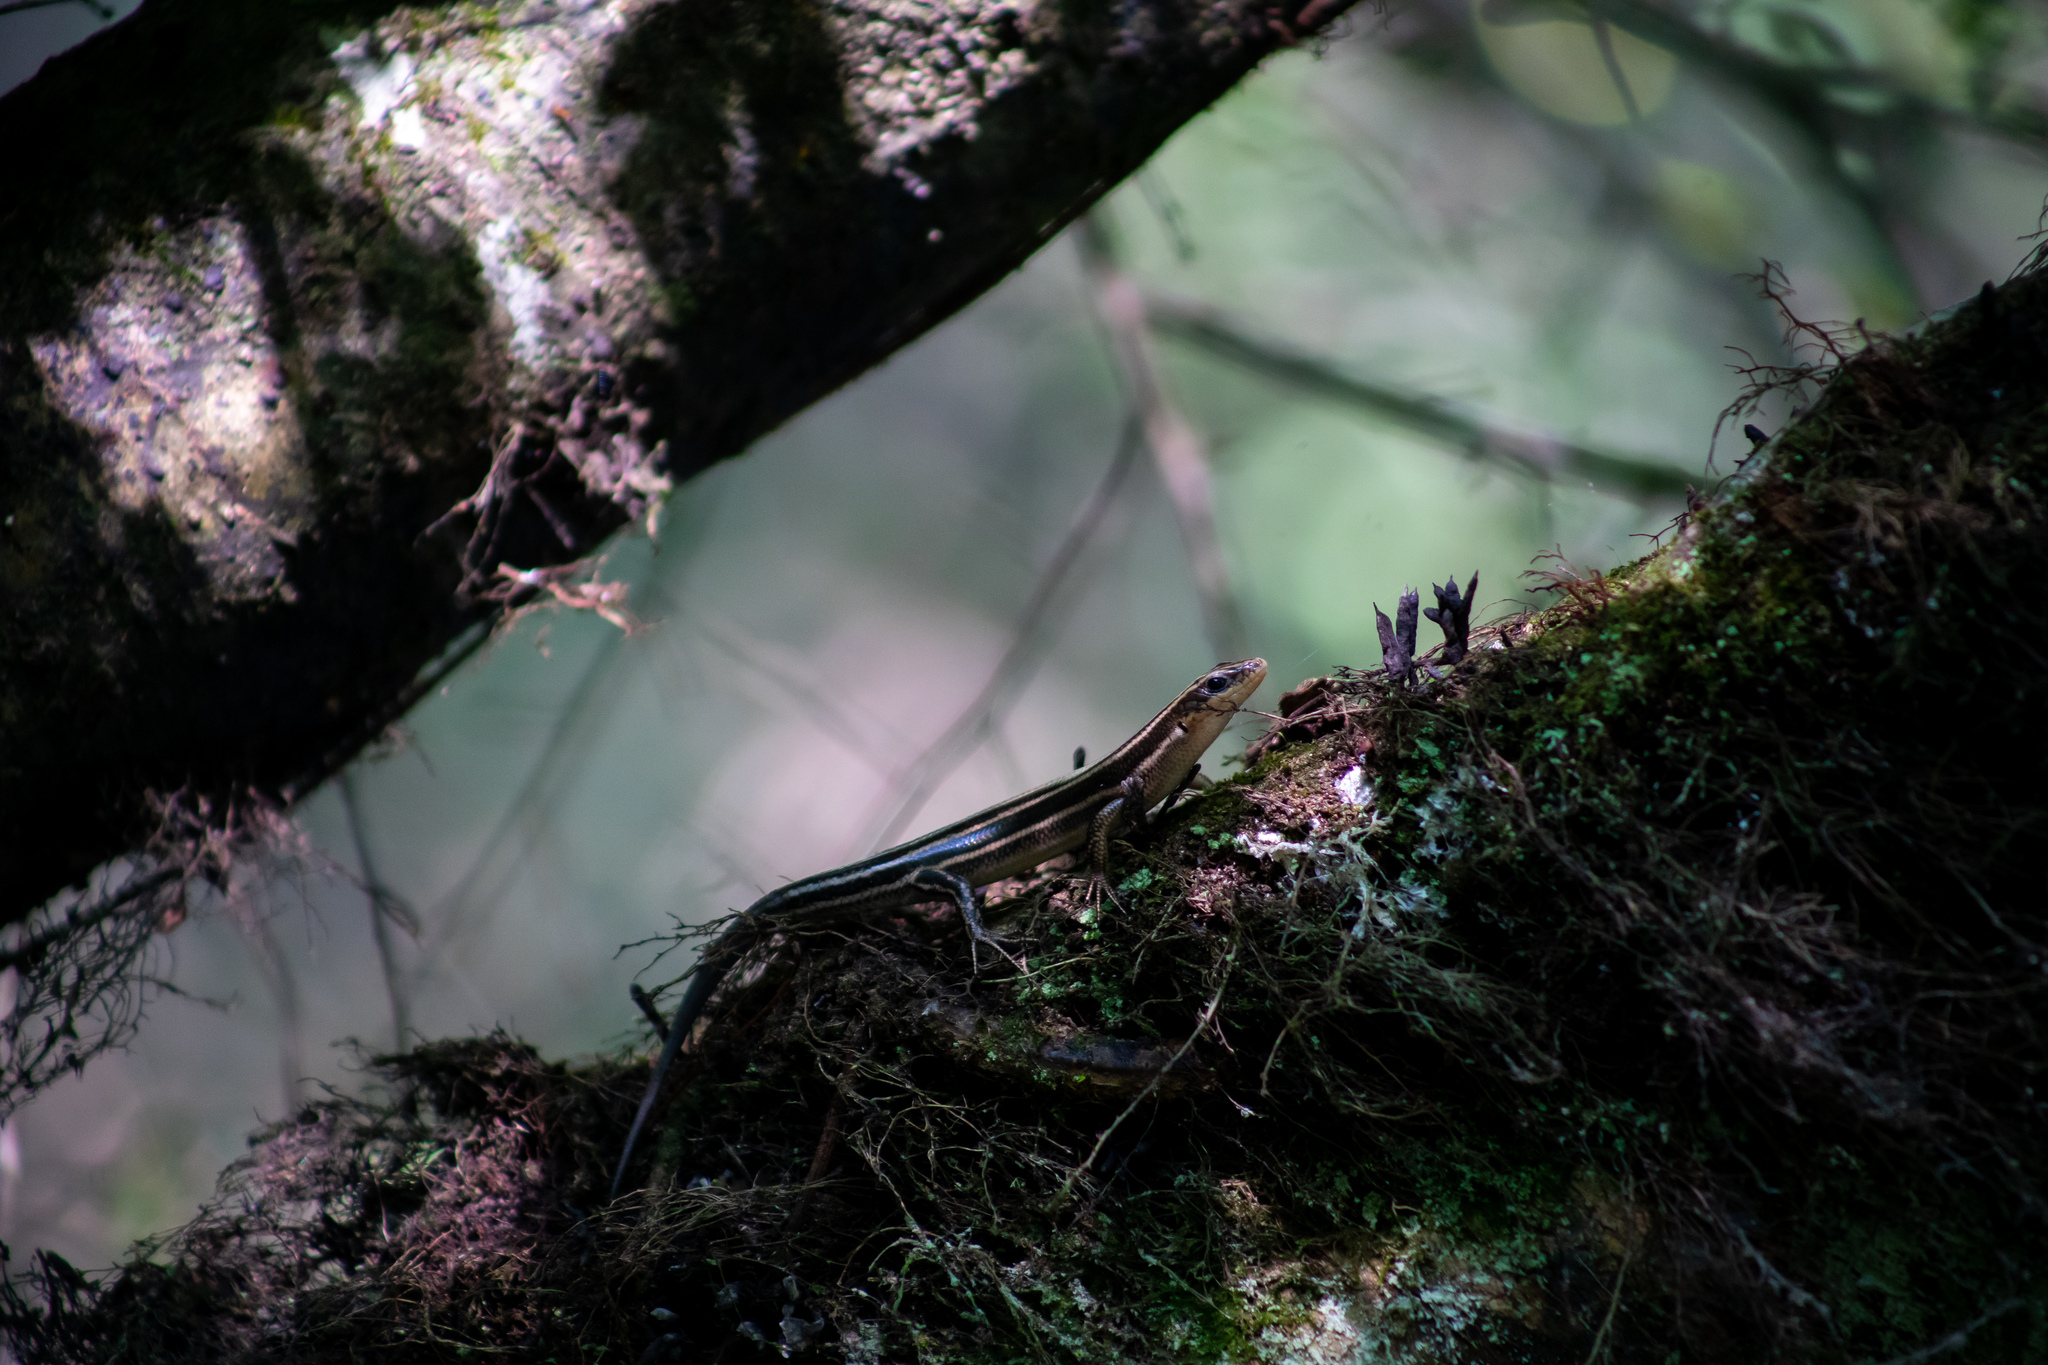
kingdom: Animalia
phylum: Chordata
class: Squamata
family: Scincidae
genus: Plestiodon
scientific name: Plestiodon
